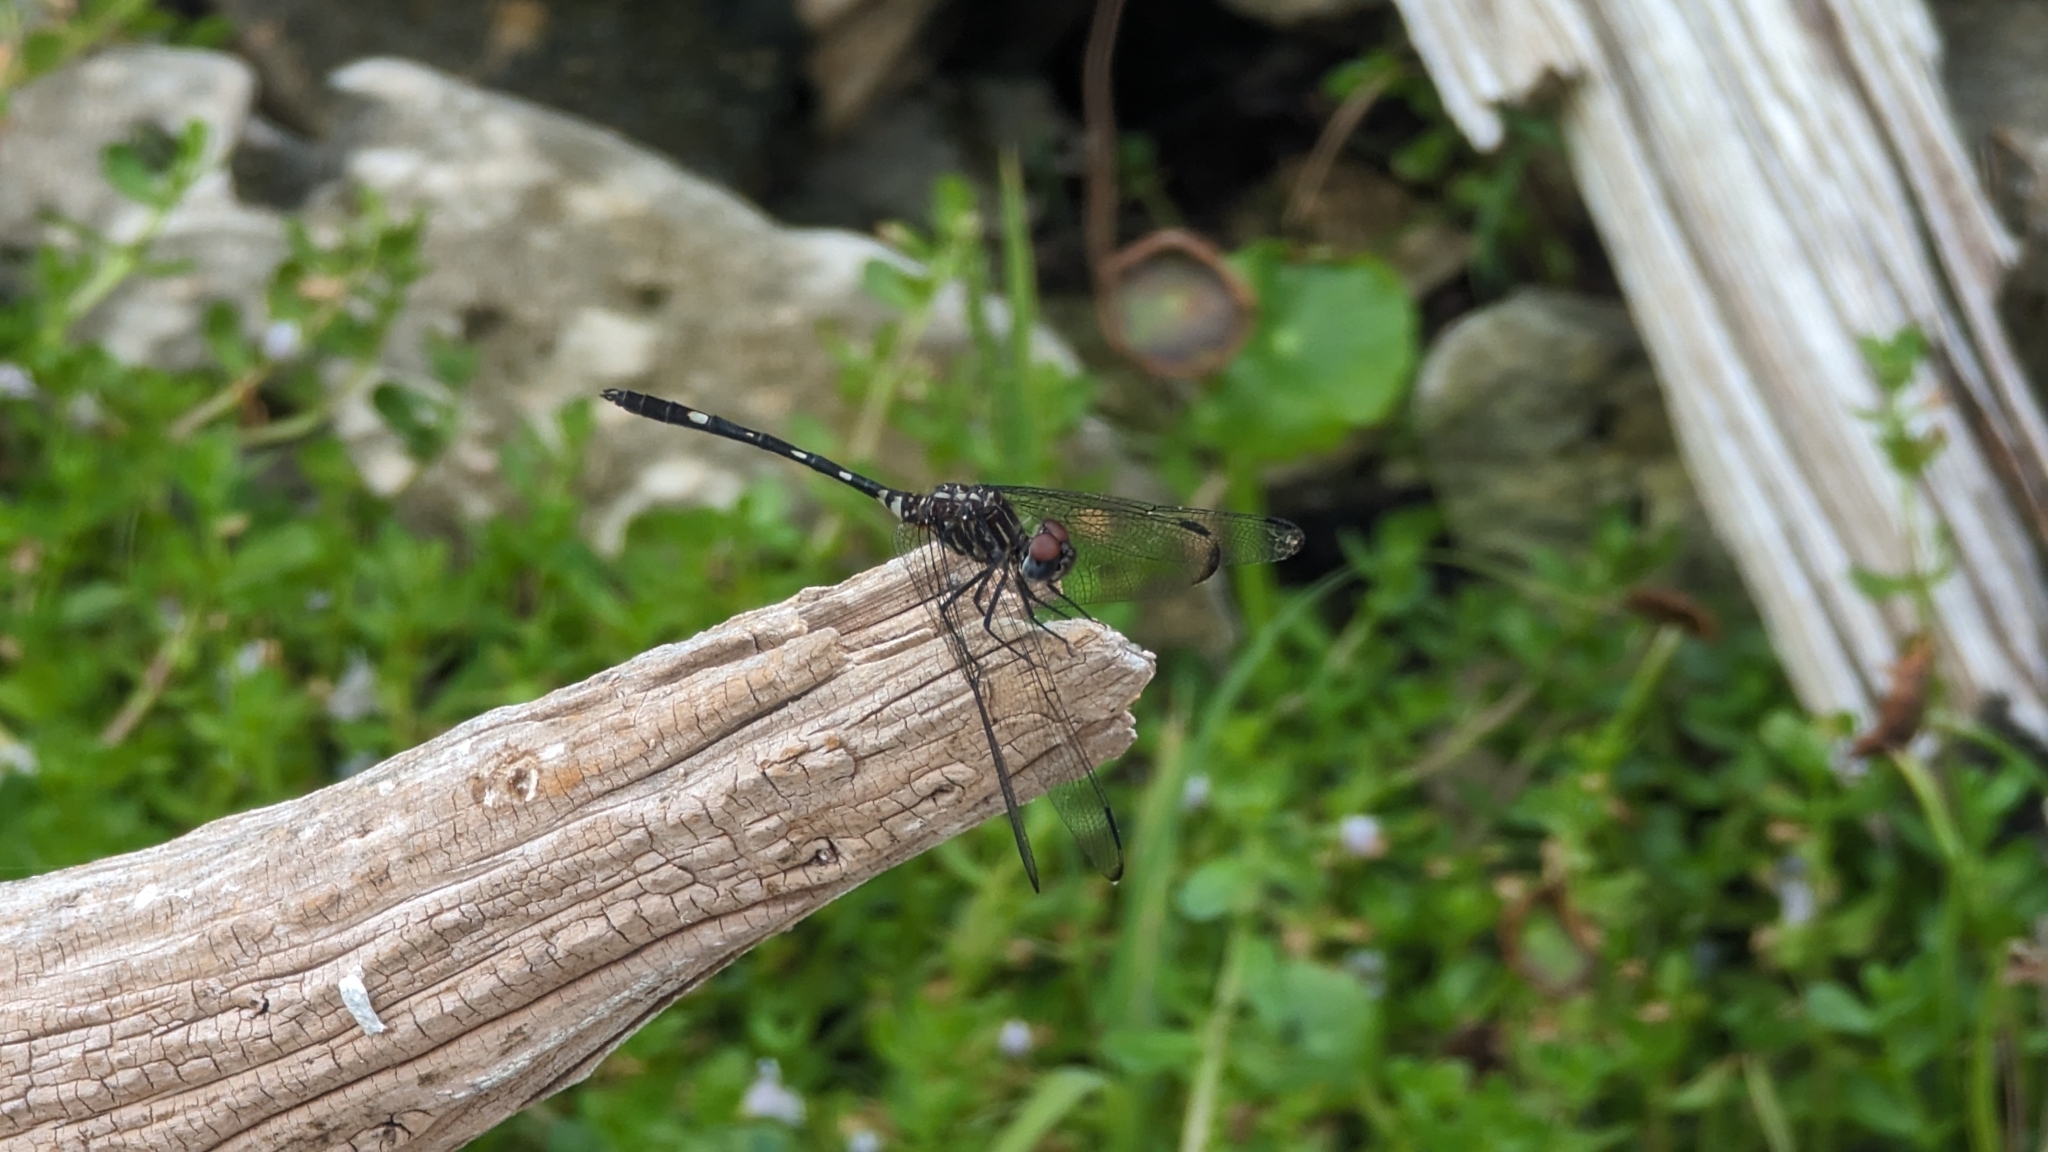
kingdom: Animalia
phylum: Arthropoda
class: Insecta
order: Odonata
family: Libellulidae
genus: Dythemis
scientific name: Dythemis velox
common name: Swift setwing
